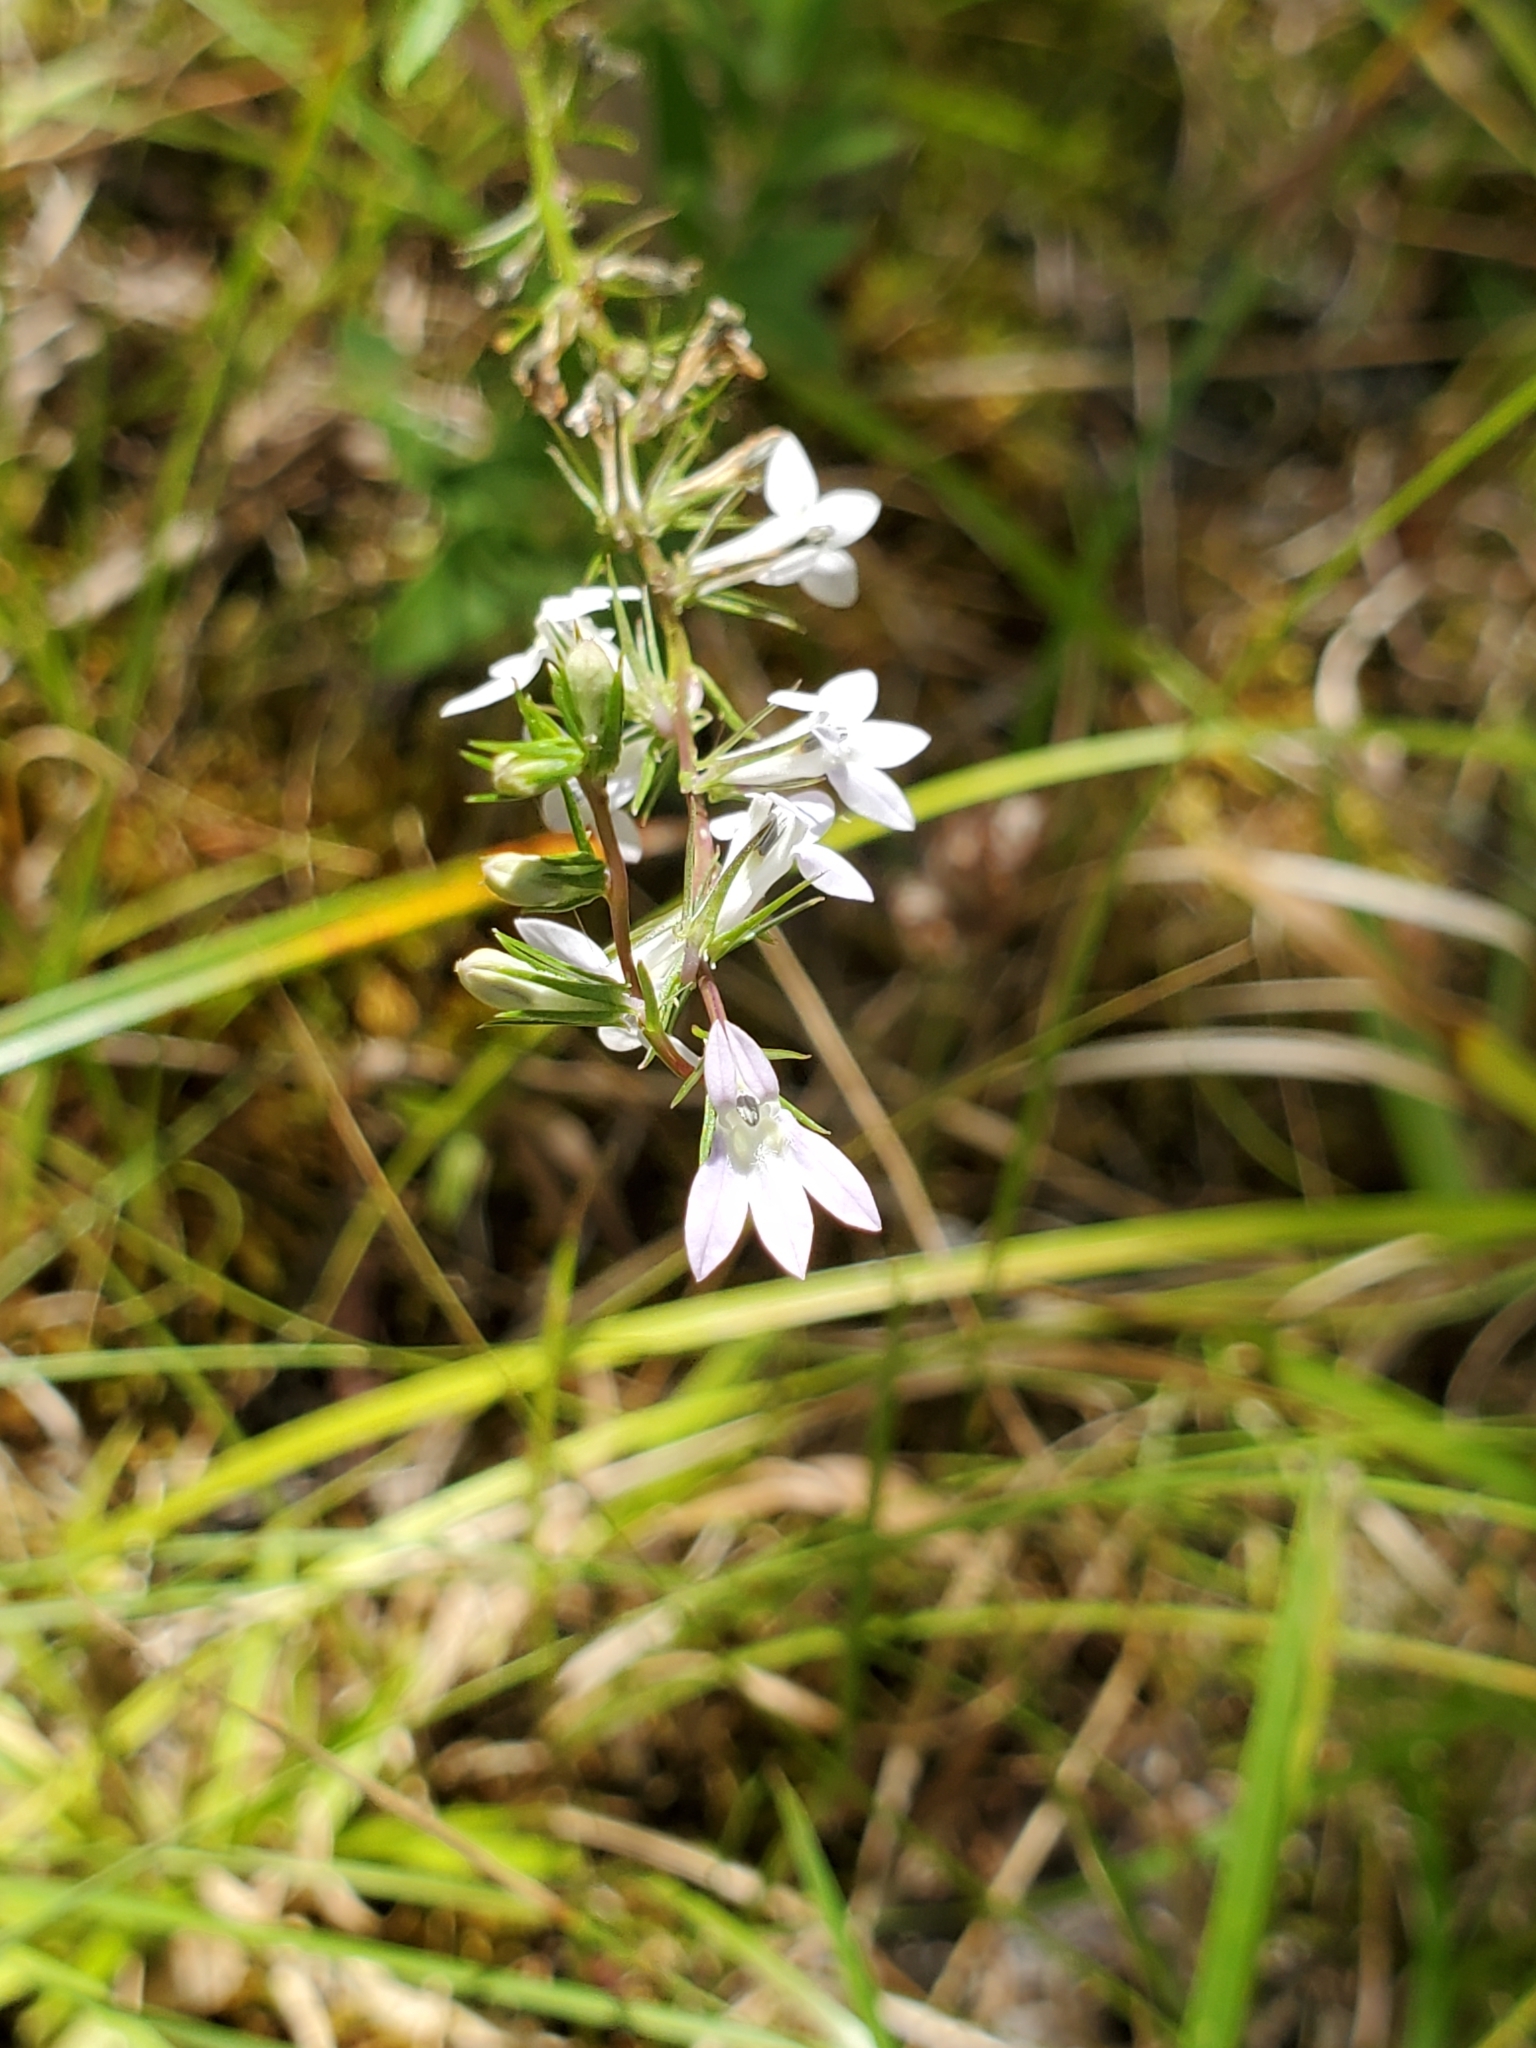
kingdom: Plantae
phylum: Tracheophyta
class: Magnoliopsida
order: Asterales
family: Campanulaceae
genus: Lobelia
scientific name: Lobelia spicata
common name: Pale-spike lobelia
